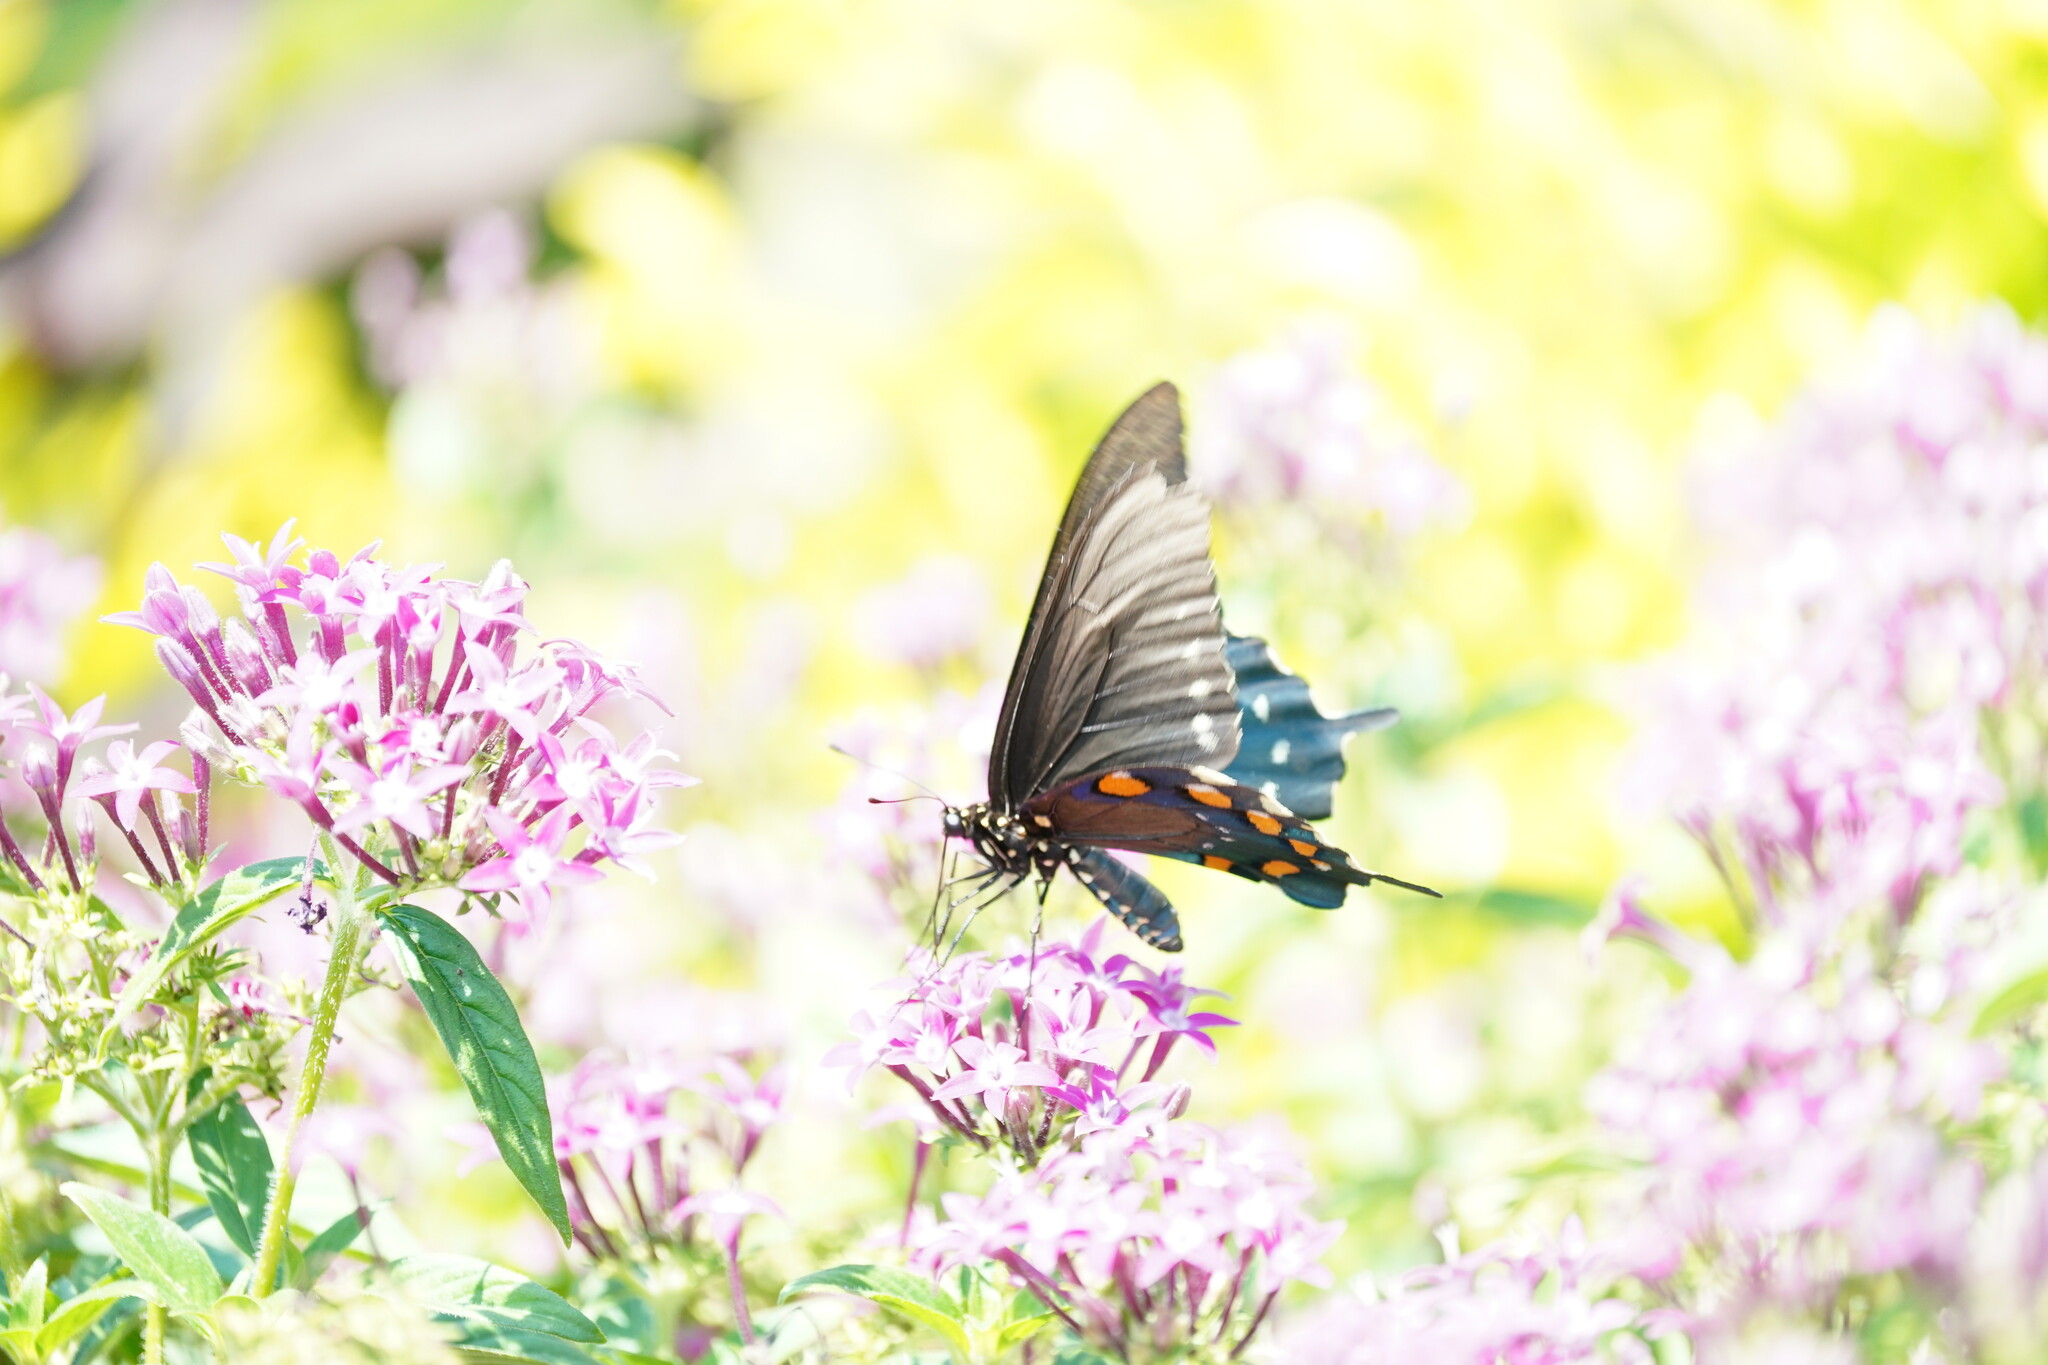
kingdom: Animalia
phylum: Arthropoda
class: Insecta
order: Lepidoptera
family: Papilionidae
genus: Battus
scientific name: Battus philenor
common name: Pipevine swallowtail
